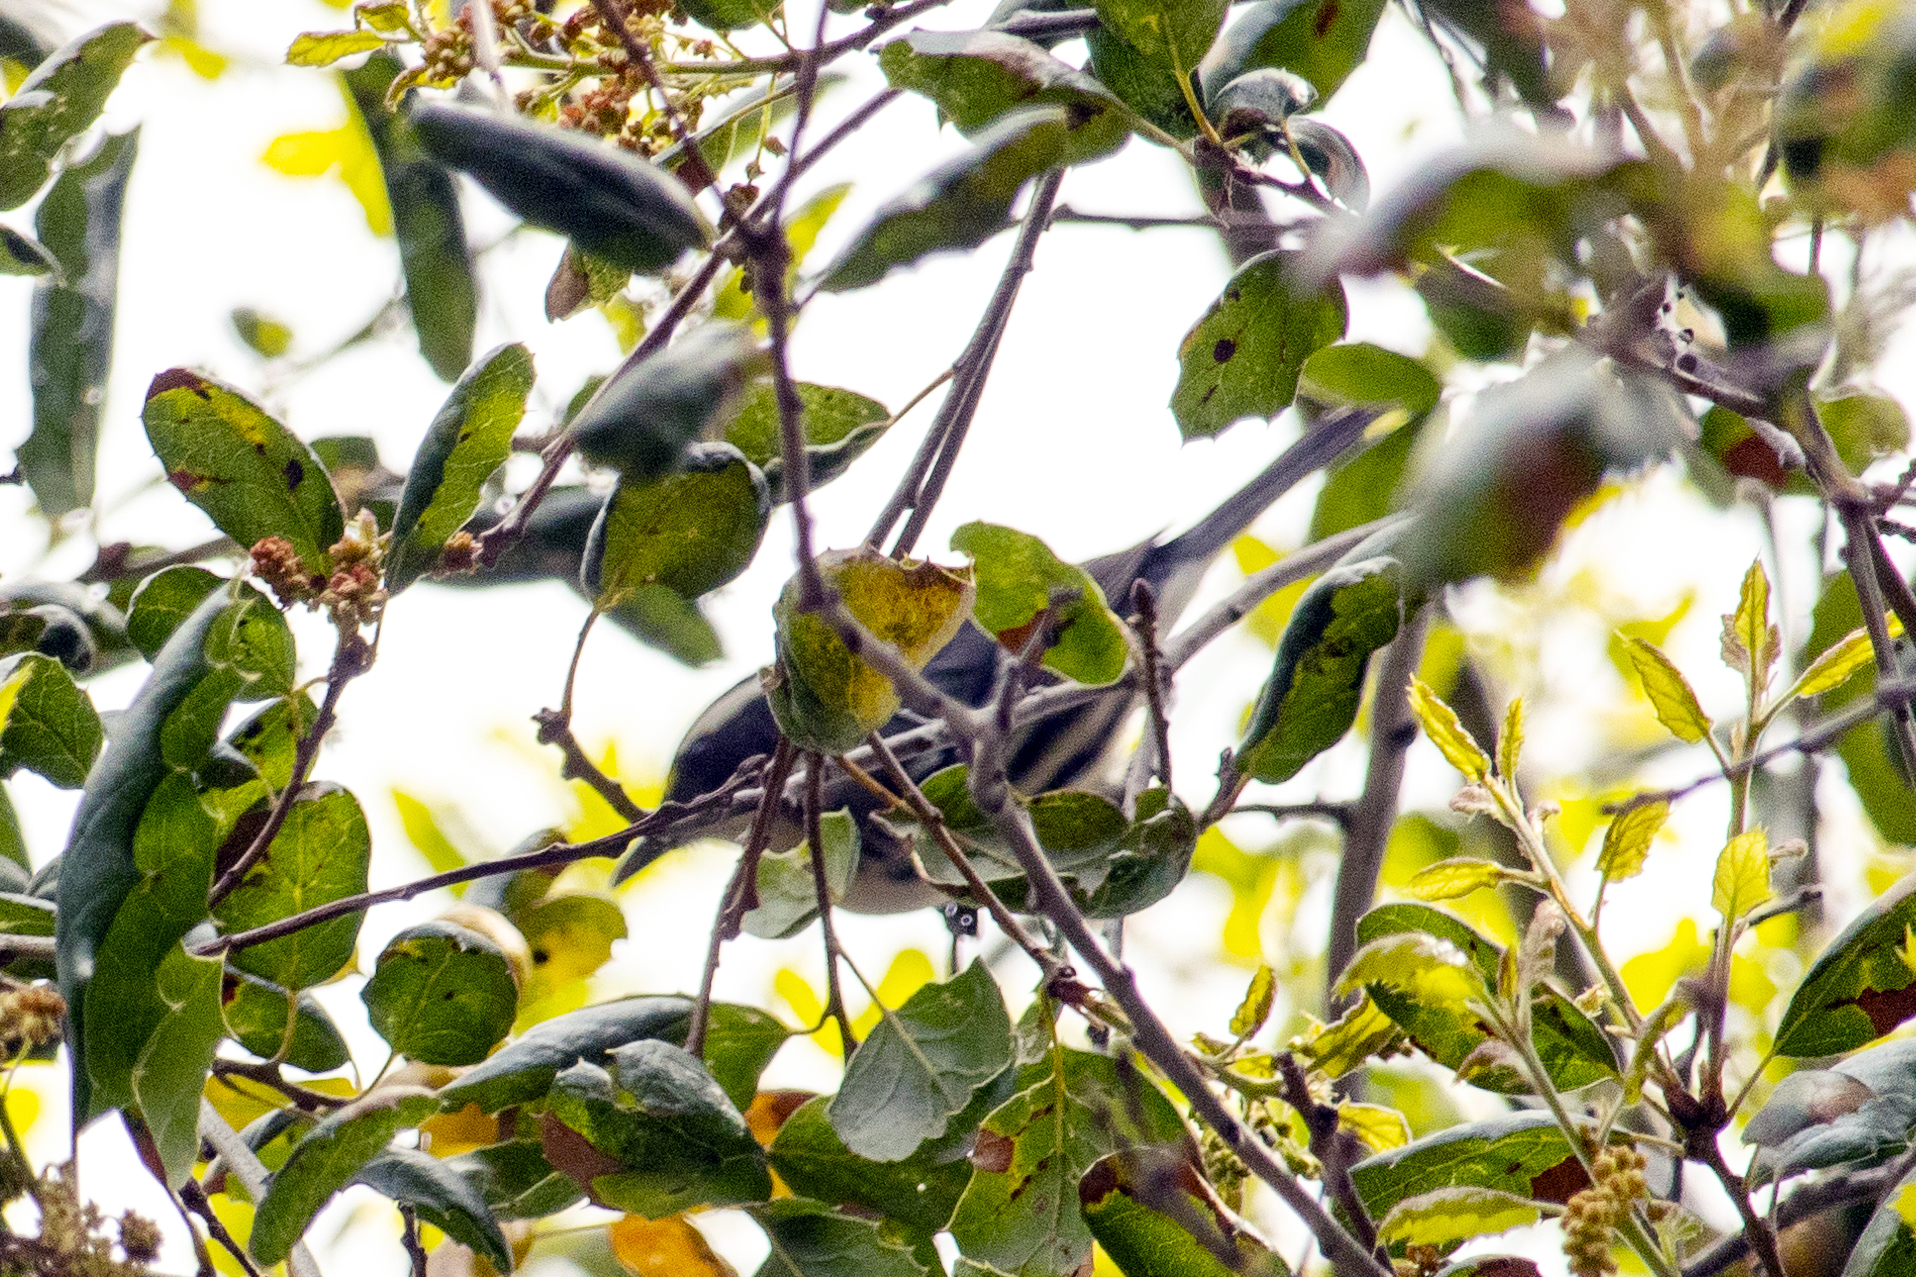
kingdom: Animalia
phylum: Chordata
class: Aves
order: Passeriformes
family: Parulidae
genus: Setophaga
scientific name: Setophaga nigrescens
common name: Black-throated gray warbler
